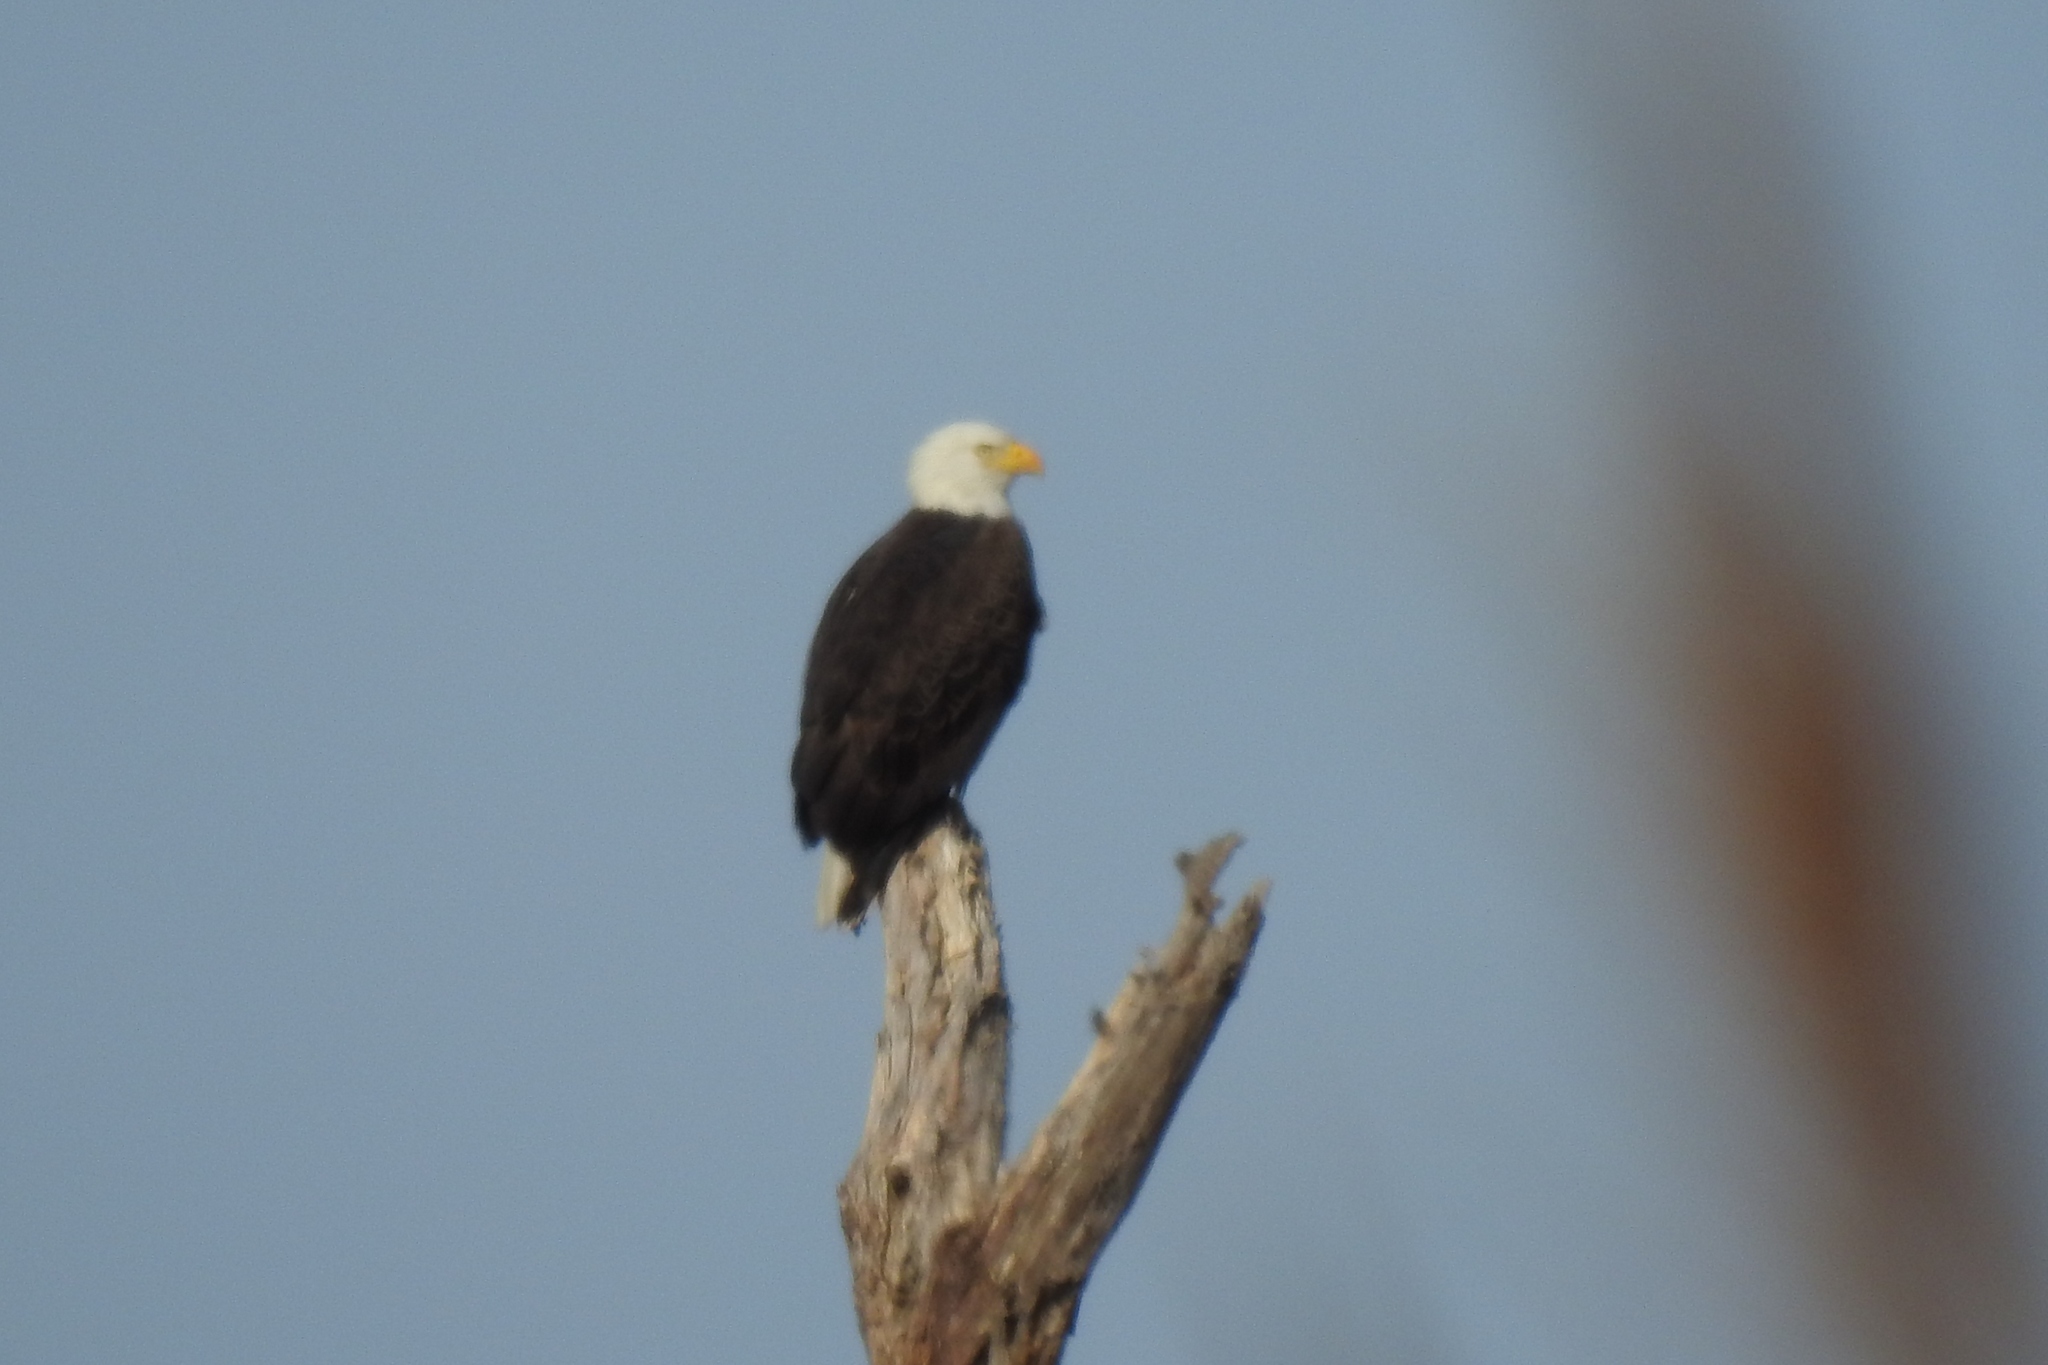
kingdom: Animalia
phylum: Chordata
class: Aves
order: Accipitriformes
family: Accipitridae
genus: Haliaeetus
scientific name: Haliaeetus leucocephalus
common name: Bald eagle
